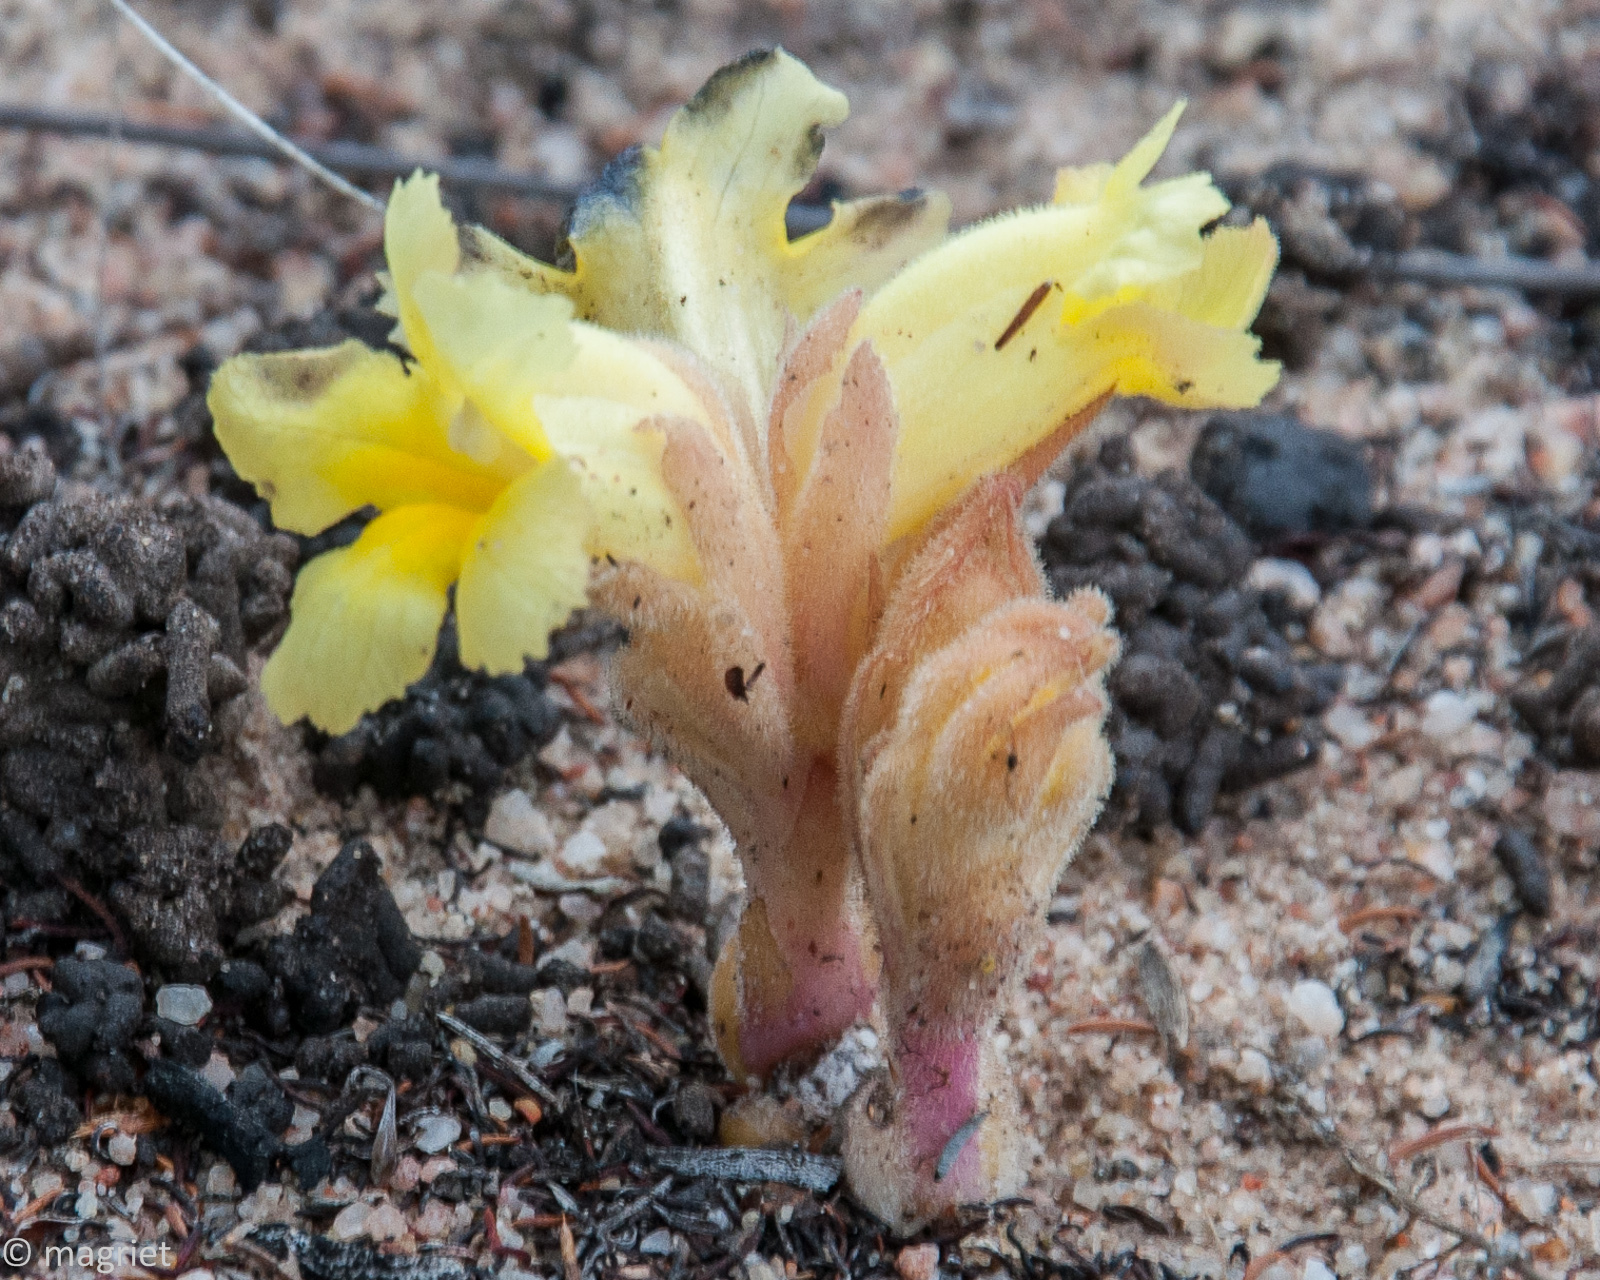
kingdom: Plantae
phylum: Tracheophyta
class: Magnoliopsida
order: Lamiales
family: Orobanchaceae
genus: Harveya
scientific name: Harveya purpurea
